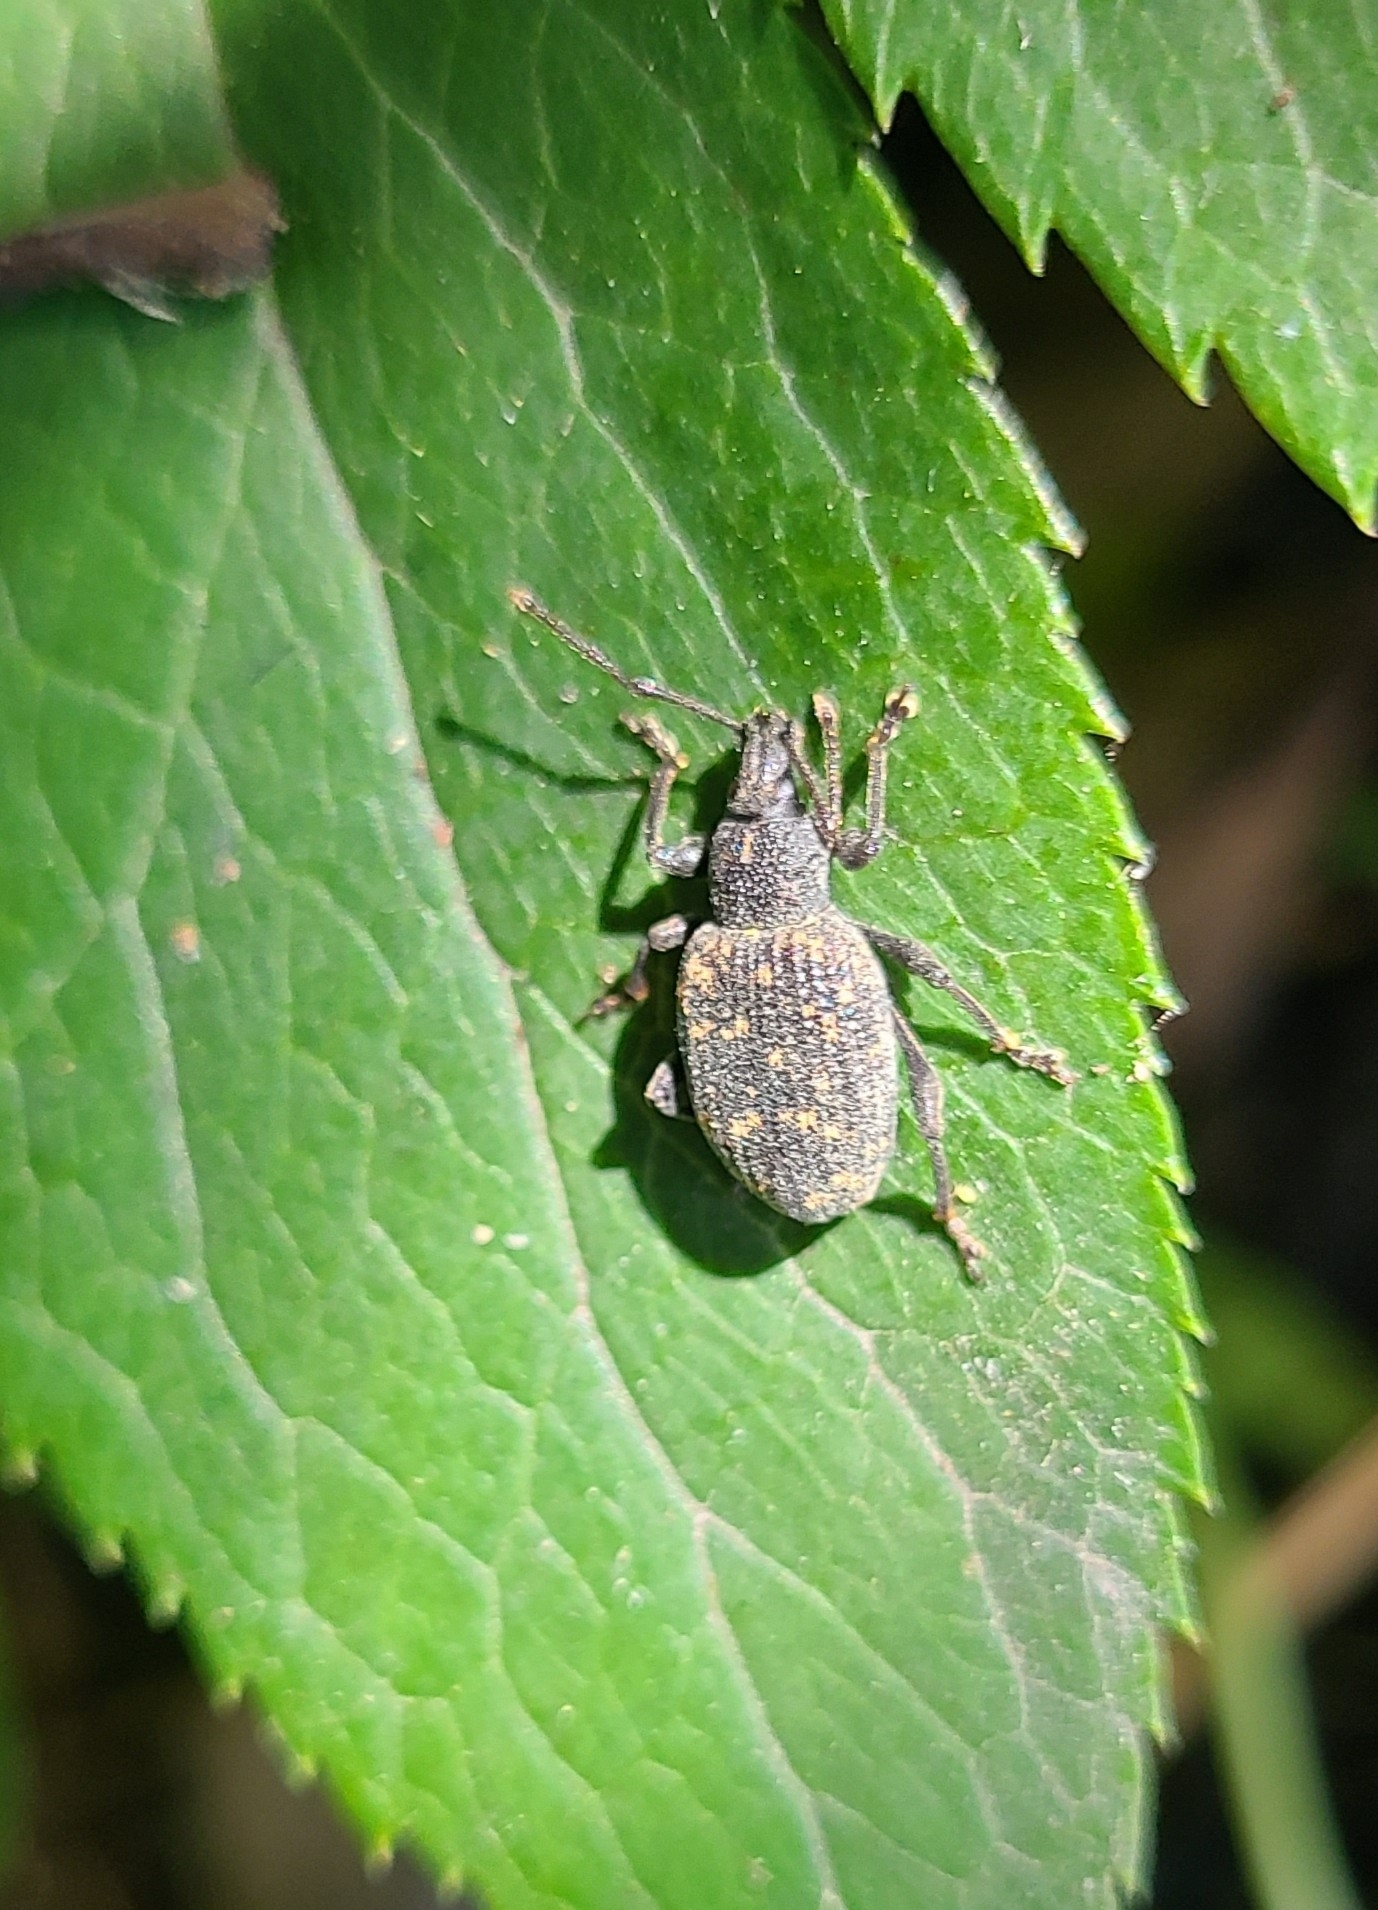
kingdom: Animalia
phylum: Arthropoda
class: Insecta
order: Coleoptera
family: Curculionidae
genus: Otiorhynchus
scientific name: Otiorhynchus sulcatus
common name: Black vine weevil
